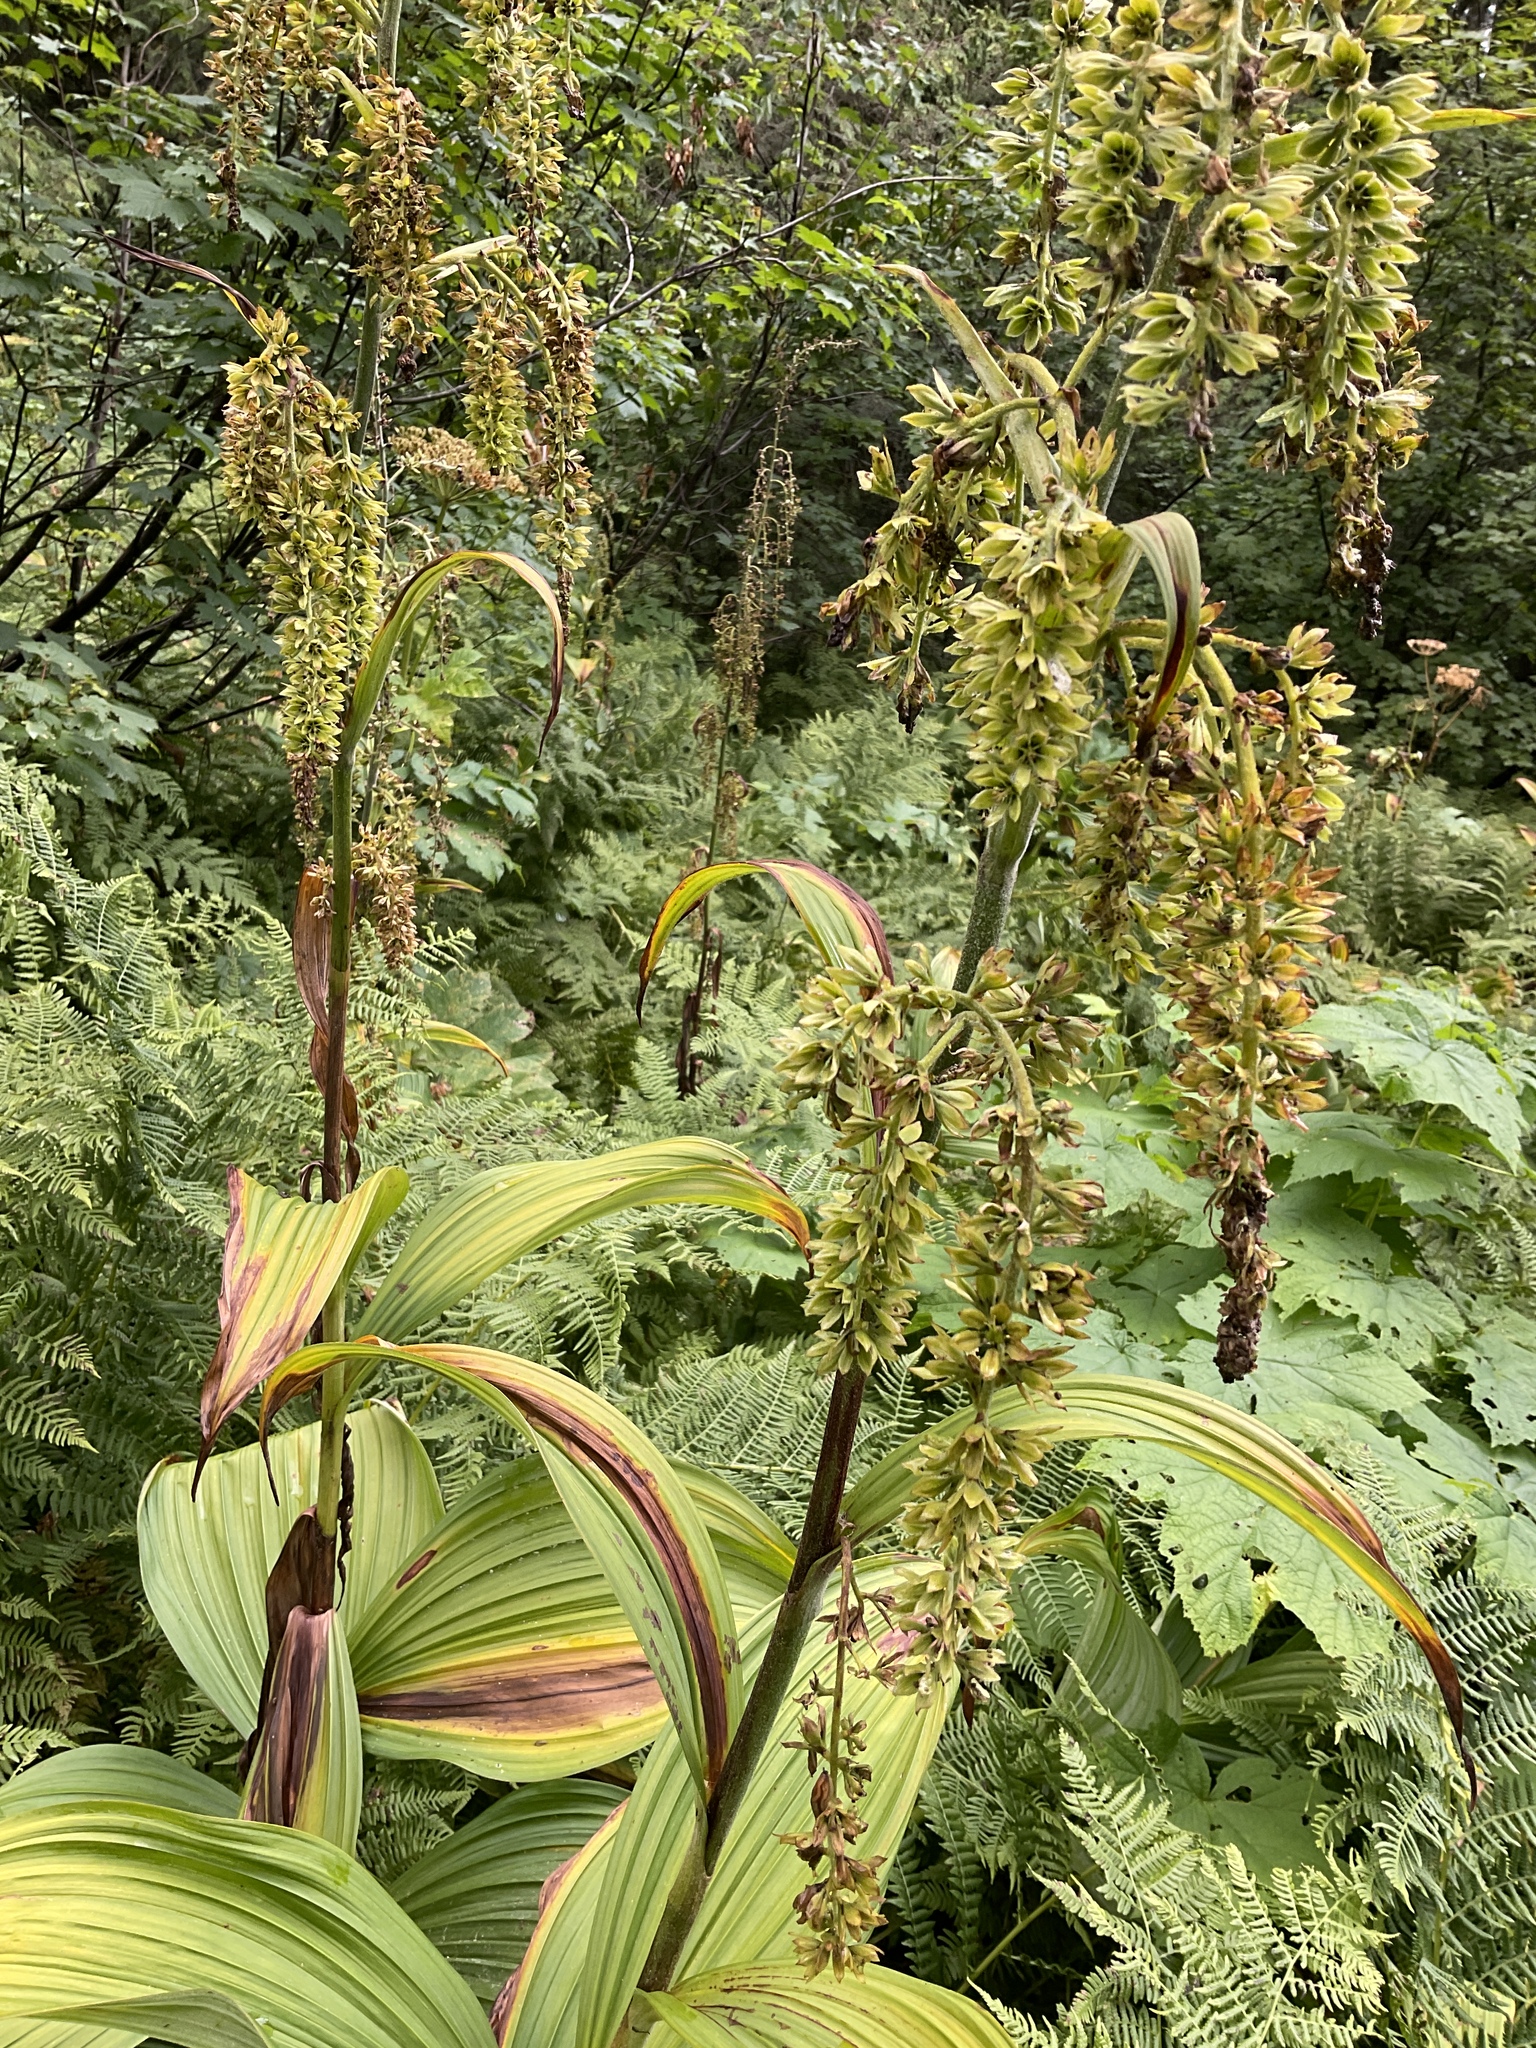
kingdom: Plantae
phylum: Tracheophyta
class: Liliopsida
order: Liliales
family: Melanthiaceae
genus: Veratrum
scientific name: Veratrum viride
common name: American false hellebore
